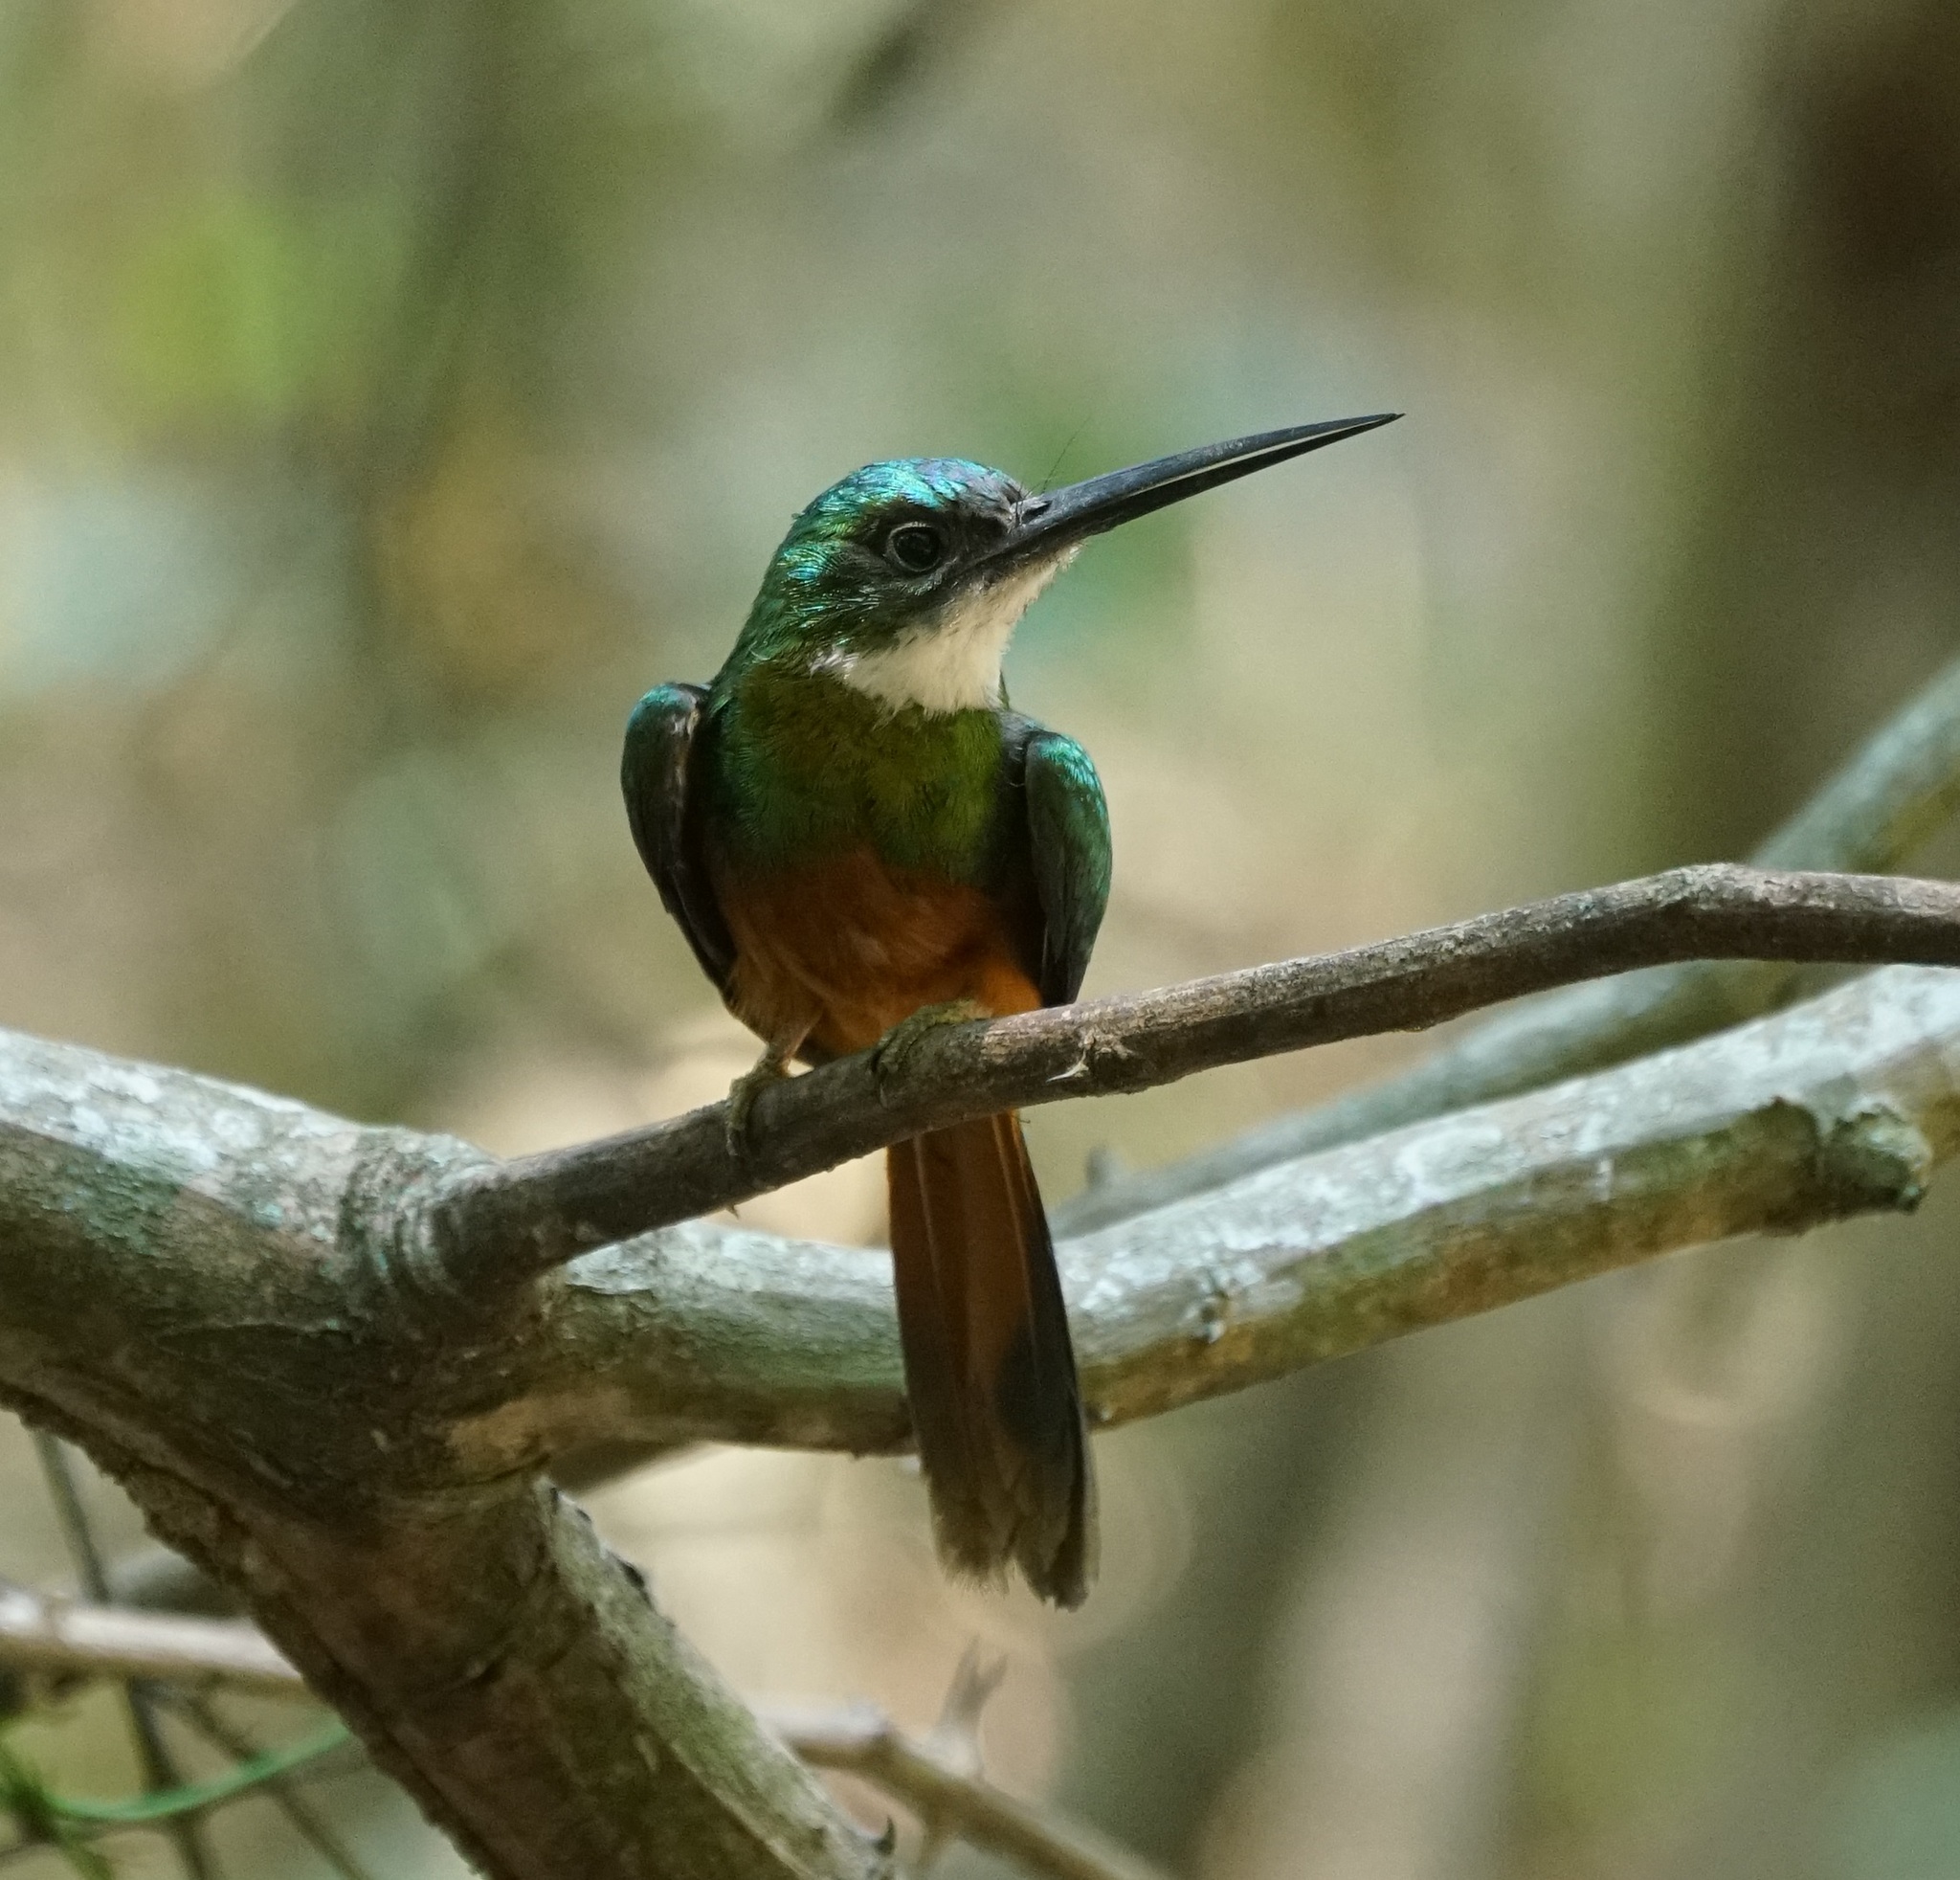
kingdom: Animalia
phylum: Chordata
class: Aves
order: Piciformes
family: Galbulidae
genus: Galbula
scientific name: Galbula ruficauda
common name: Rufous-tailed jacamar
